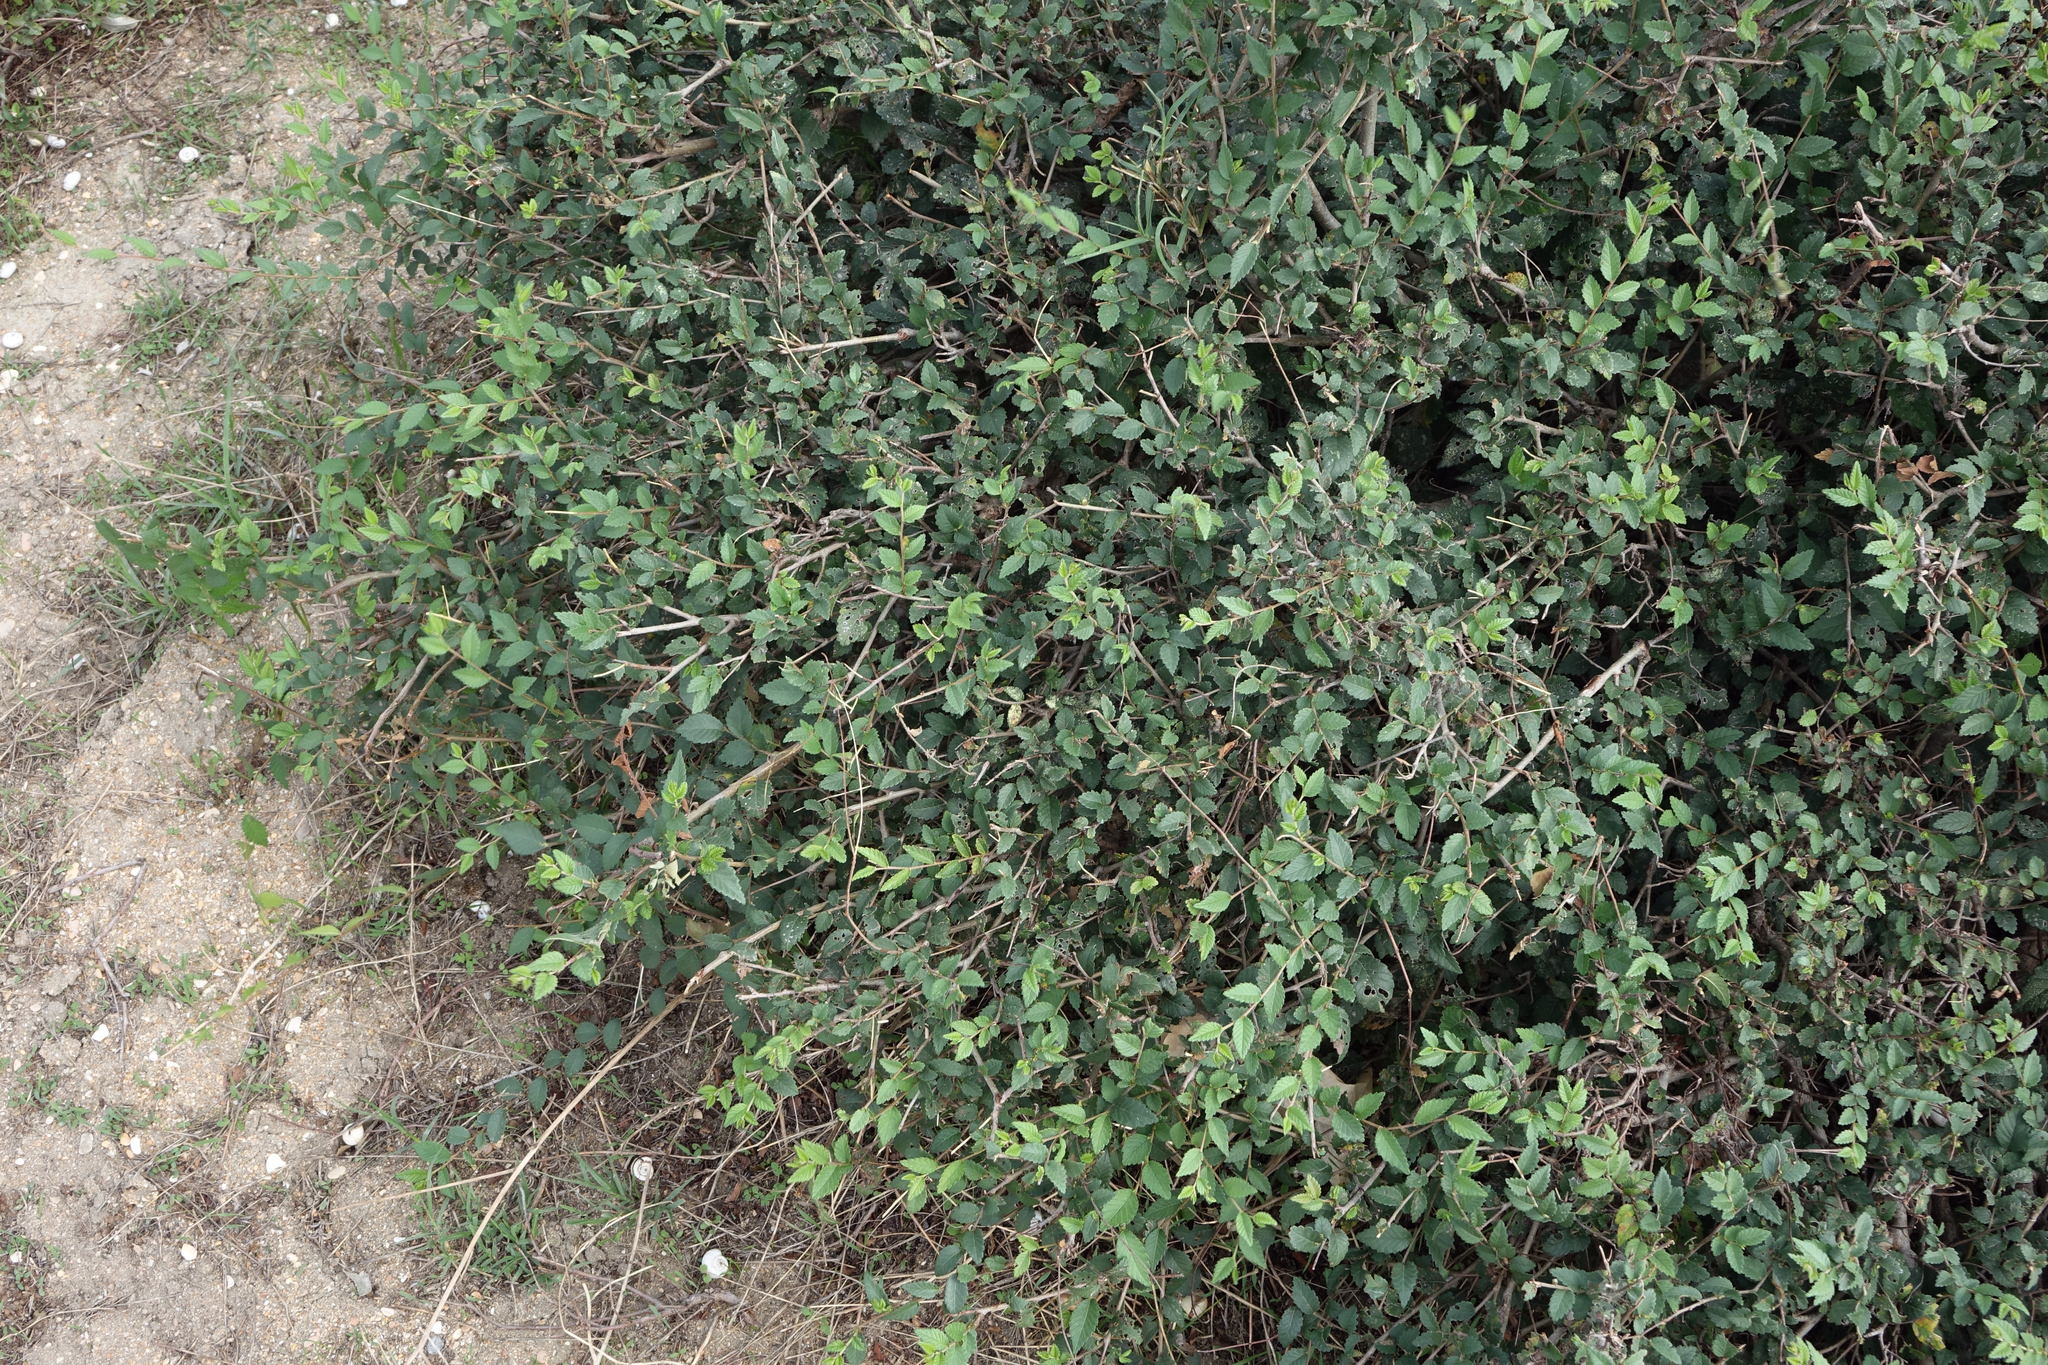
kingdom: Plantae
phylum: Tracheophyta
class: Magnoliopsida
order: Rosales
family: Ulmaceae
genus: Ulmus
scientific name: Ulmus pumila
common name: Siberian elm
